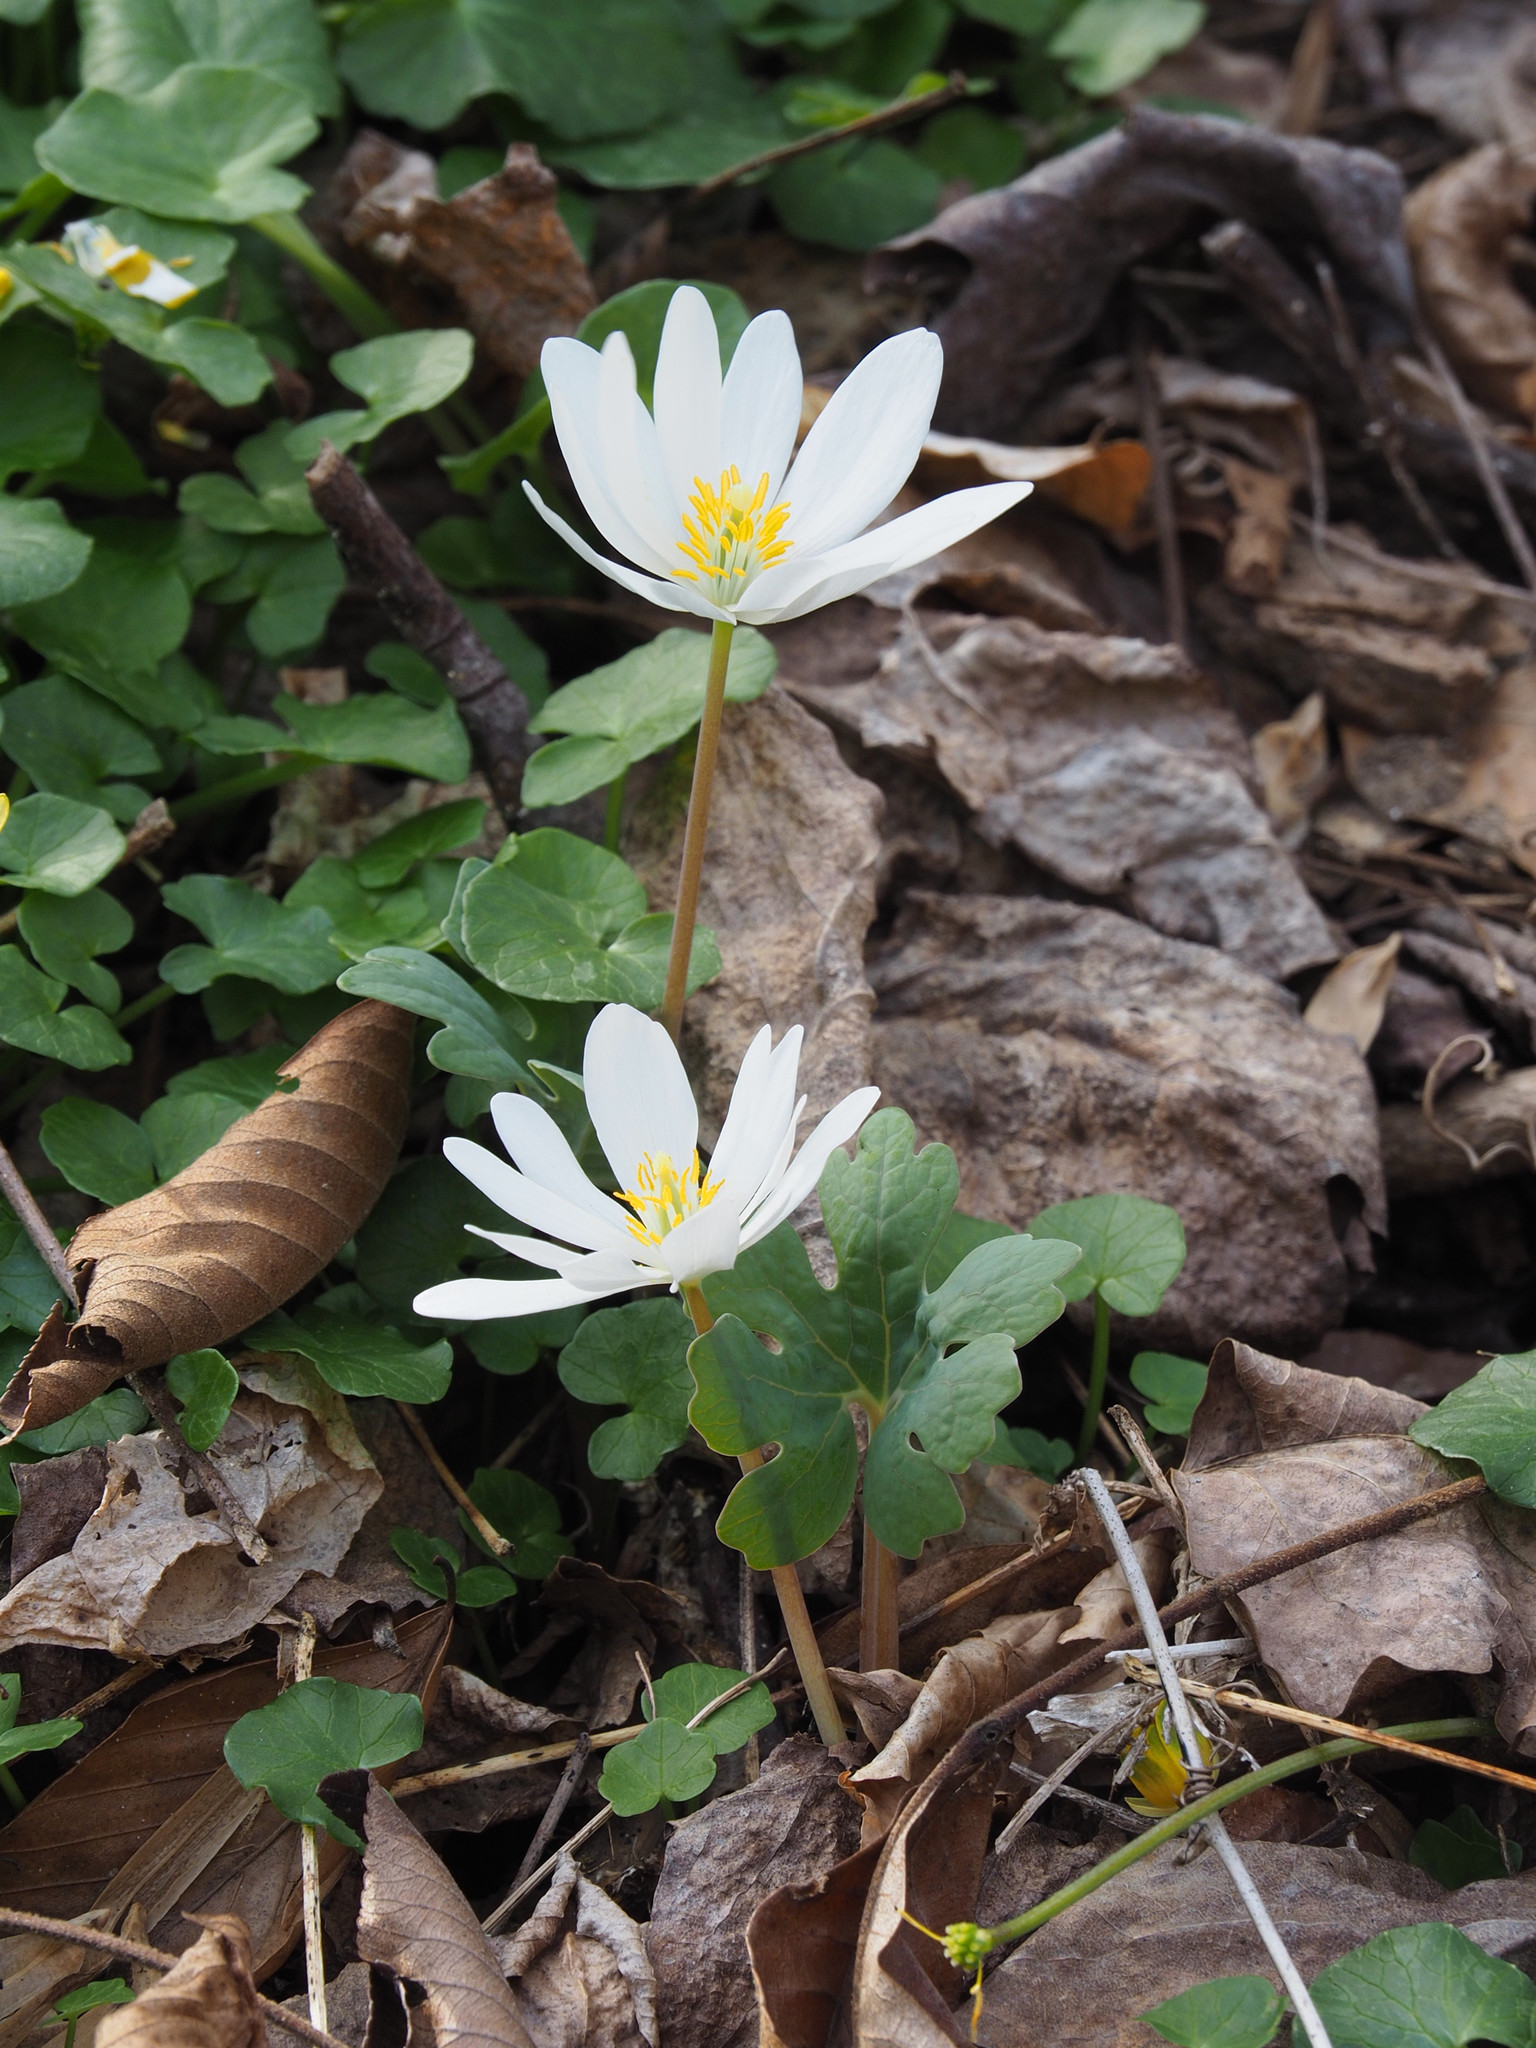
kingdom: Plantae
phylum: Tracheophyta
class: Magnoliopsida
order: Ranunculales
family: Papaveraceae
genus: Sanguinaria
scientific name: Sanguinaria canadensis
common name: Bloodroot
